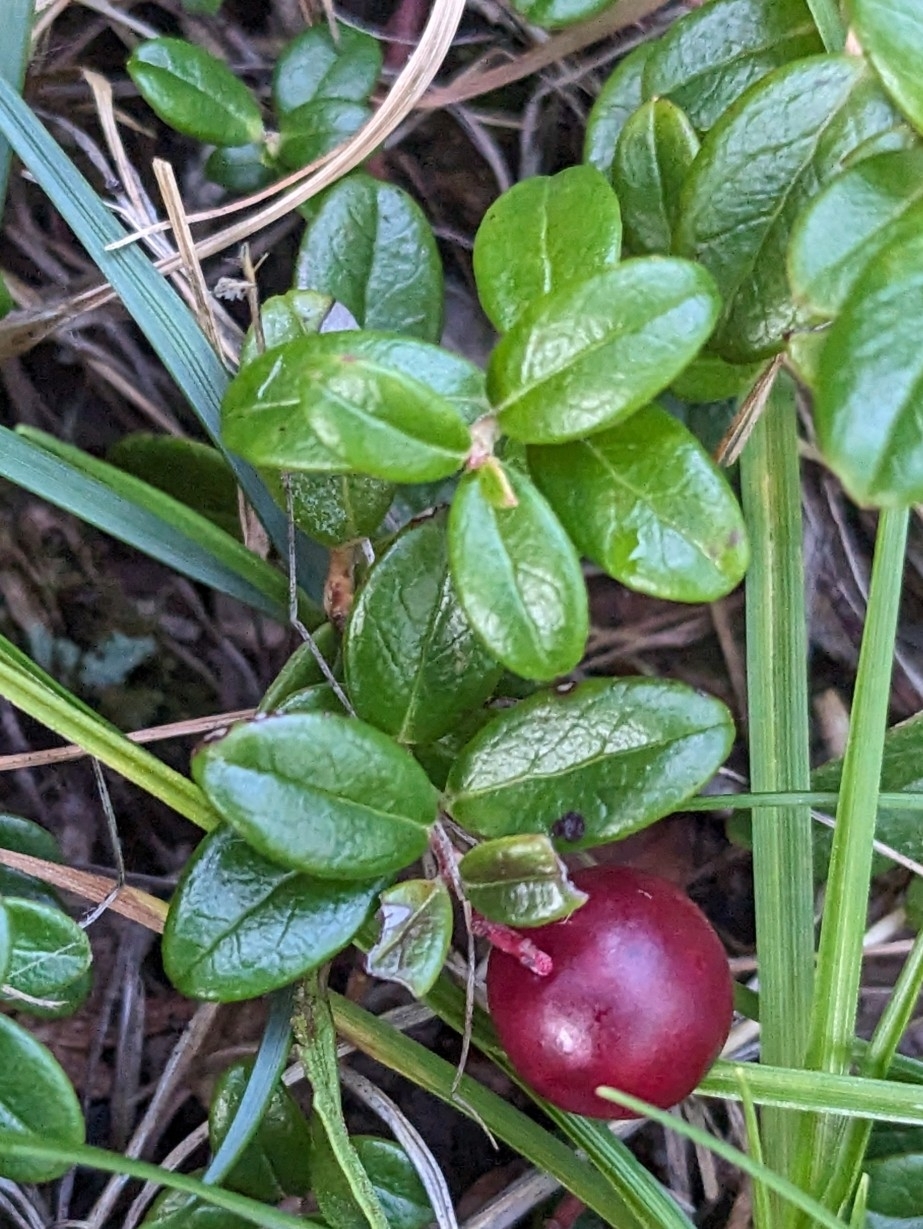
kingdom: Plantae
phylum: Tracheophyta
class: Magnoliopsida
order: Ericales
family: Ericaceae
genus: Vaccinium
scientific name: Vaccinium vitis-idaea
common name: Cowberry
